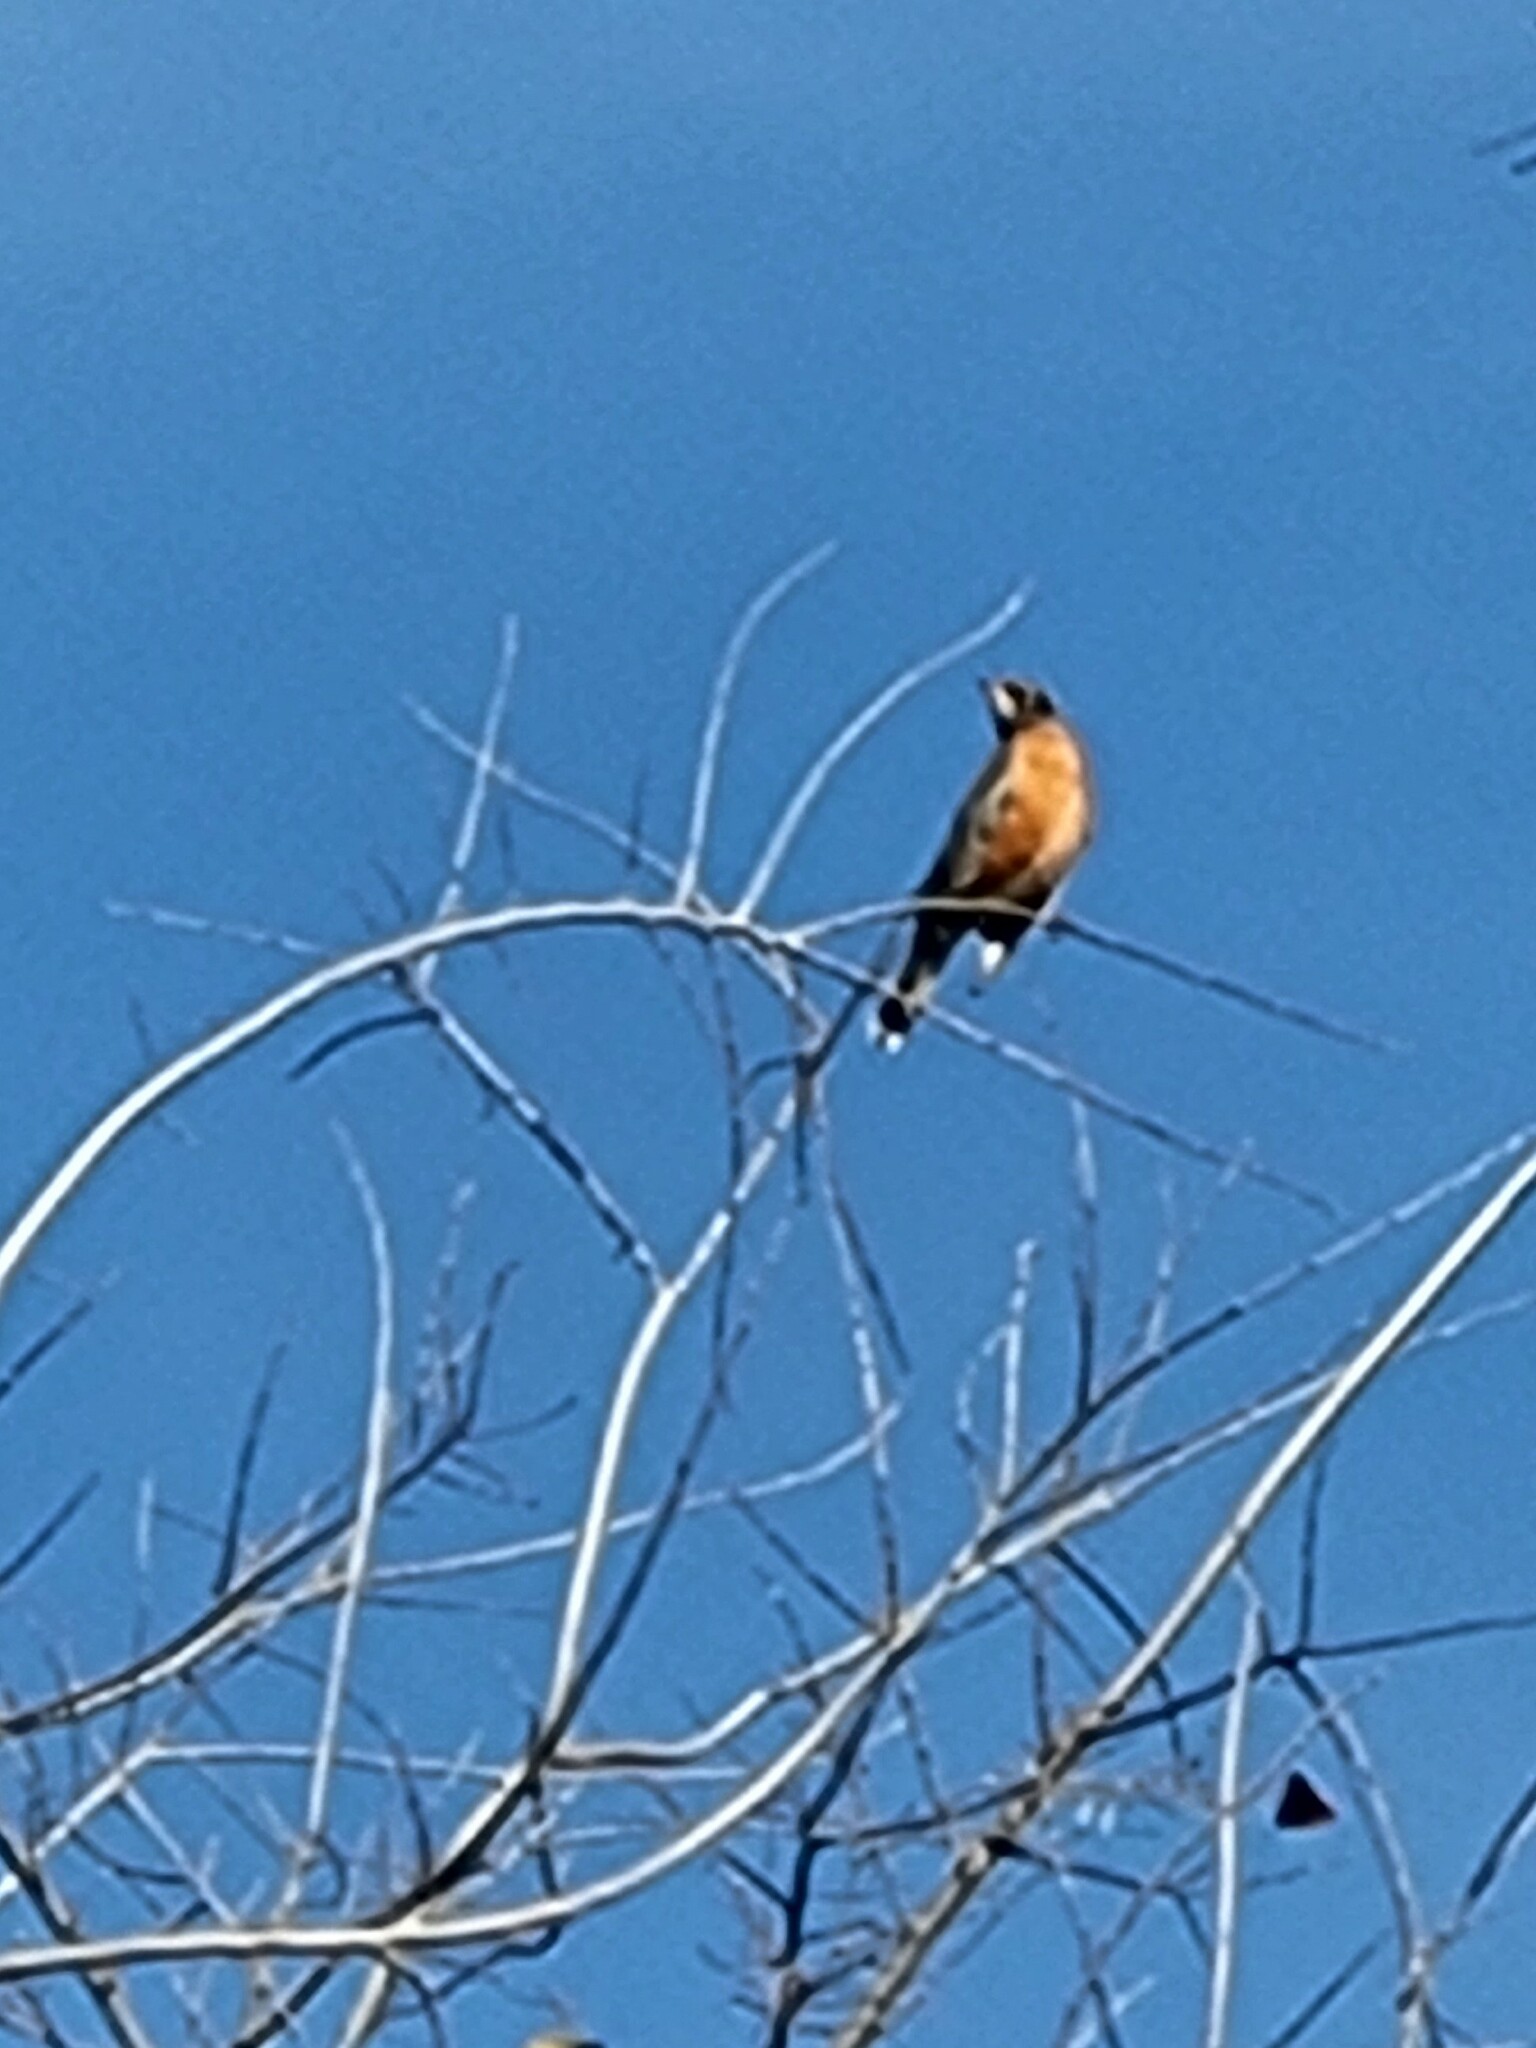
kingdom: Animalia
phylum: Chordata
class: Aves
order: Passeriformes
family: Turdidae
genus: Turdus
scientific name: Turdus migratorius
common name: American robin
